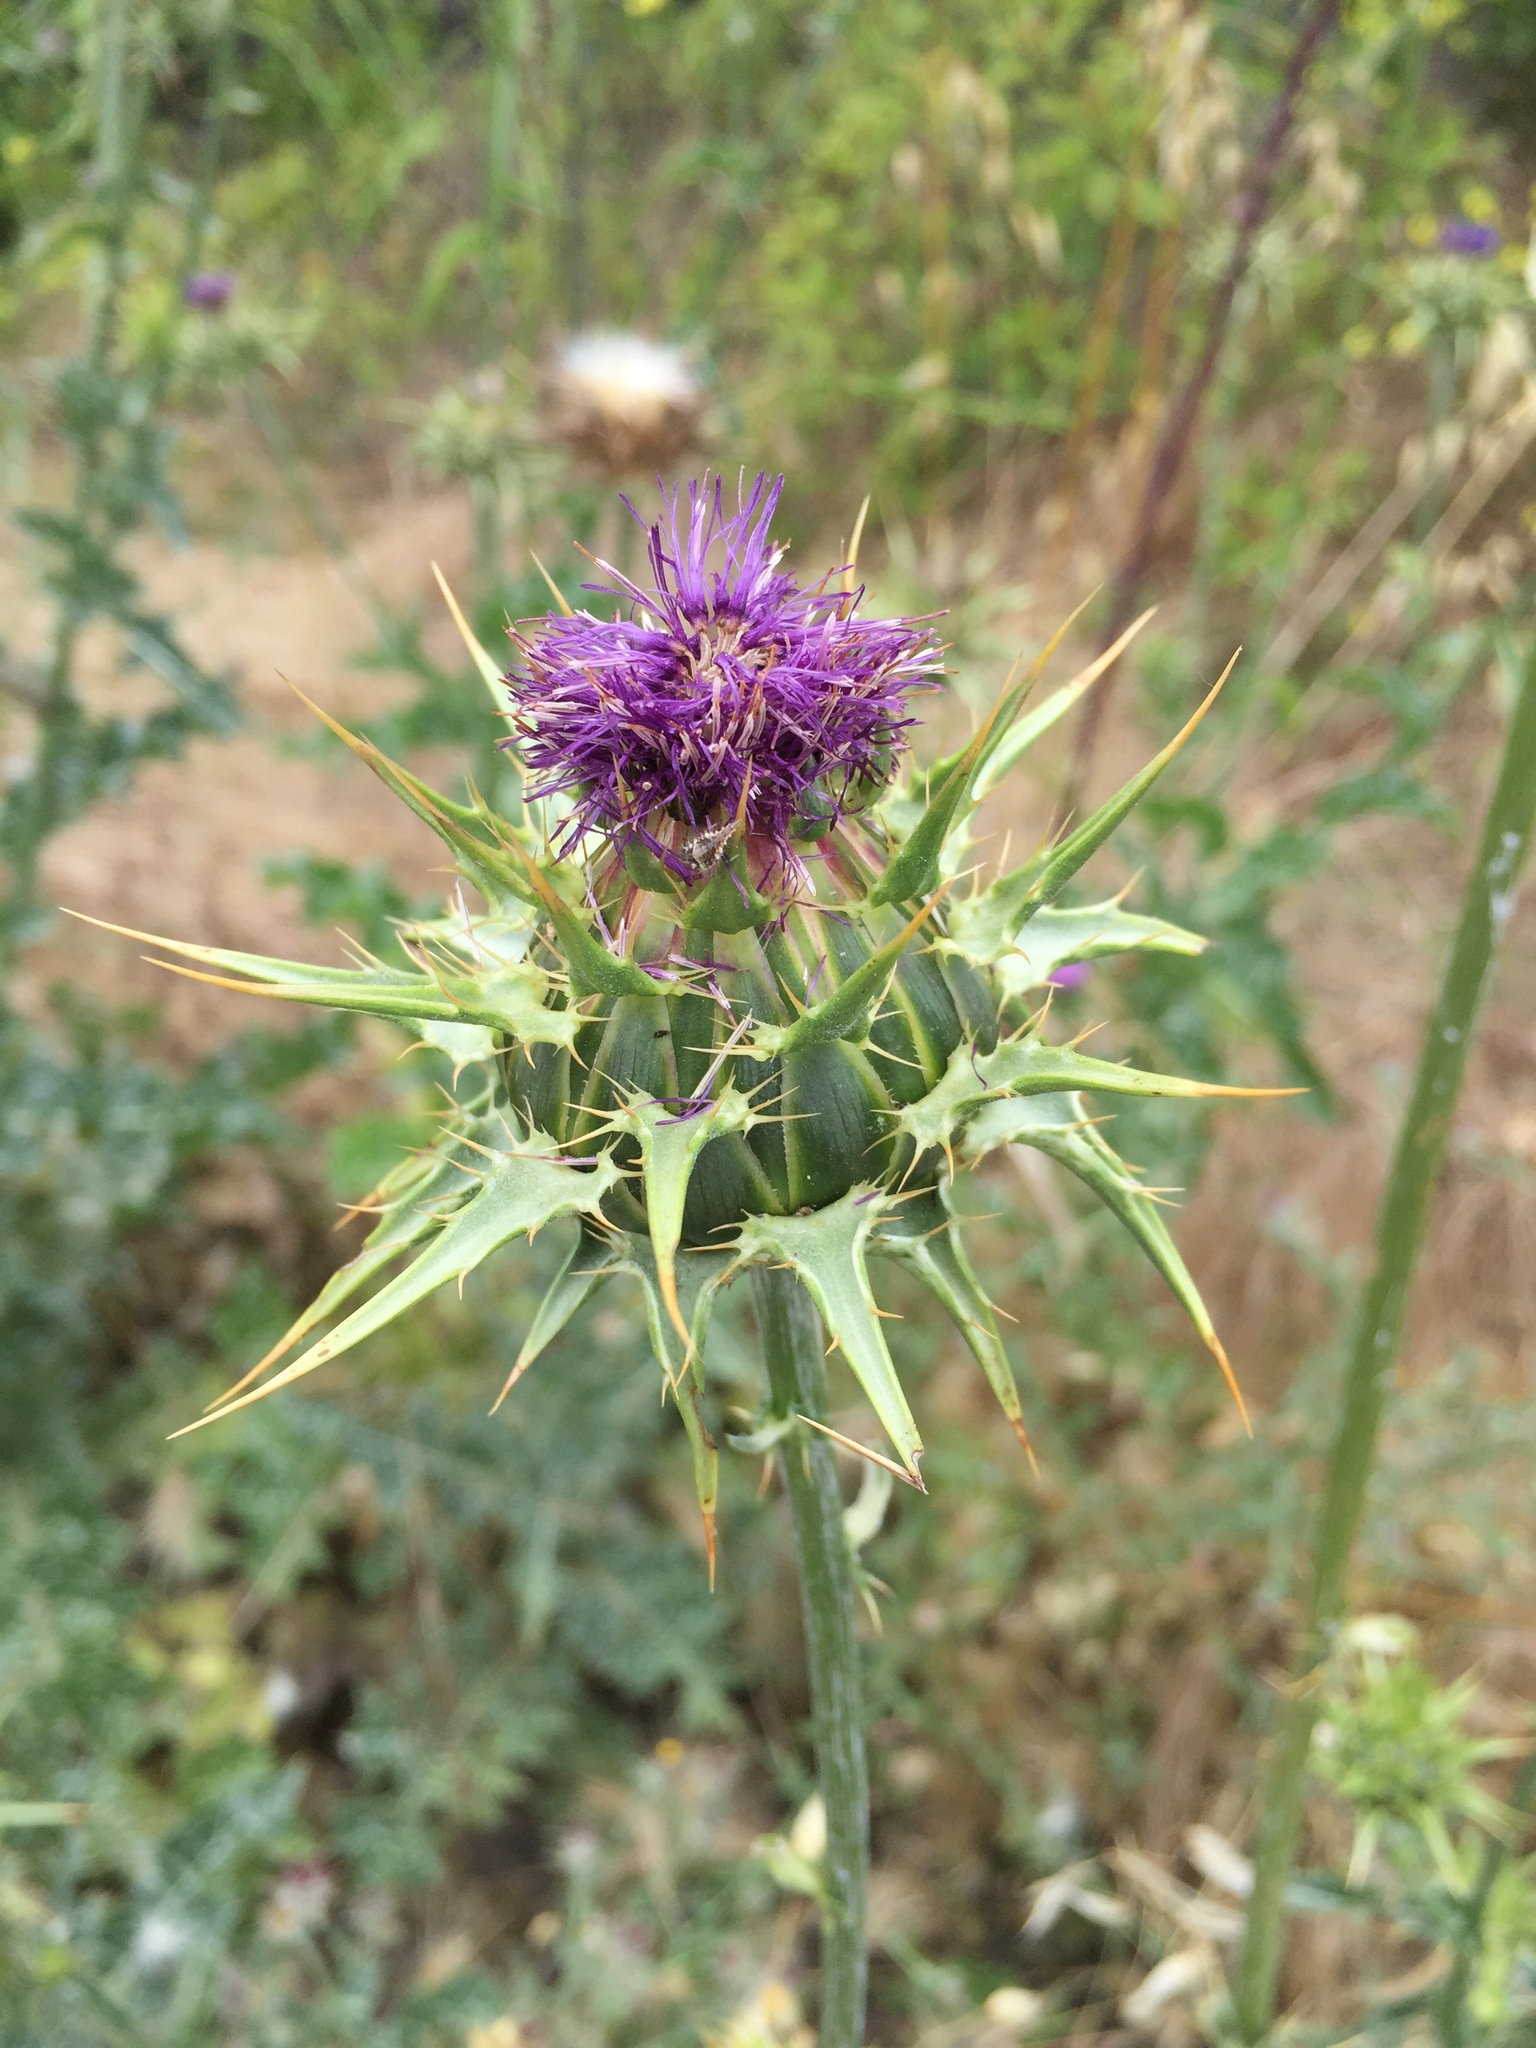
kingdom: Plantae
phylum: Tracheophyta
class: Magnoliopsida
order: Asterales
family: Asteraceae
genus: Silybum
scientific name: Silybum marianum
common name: Milk thistle
